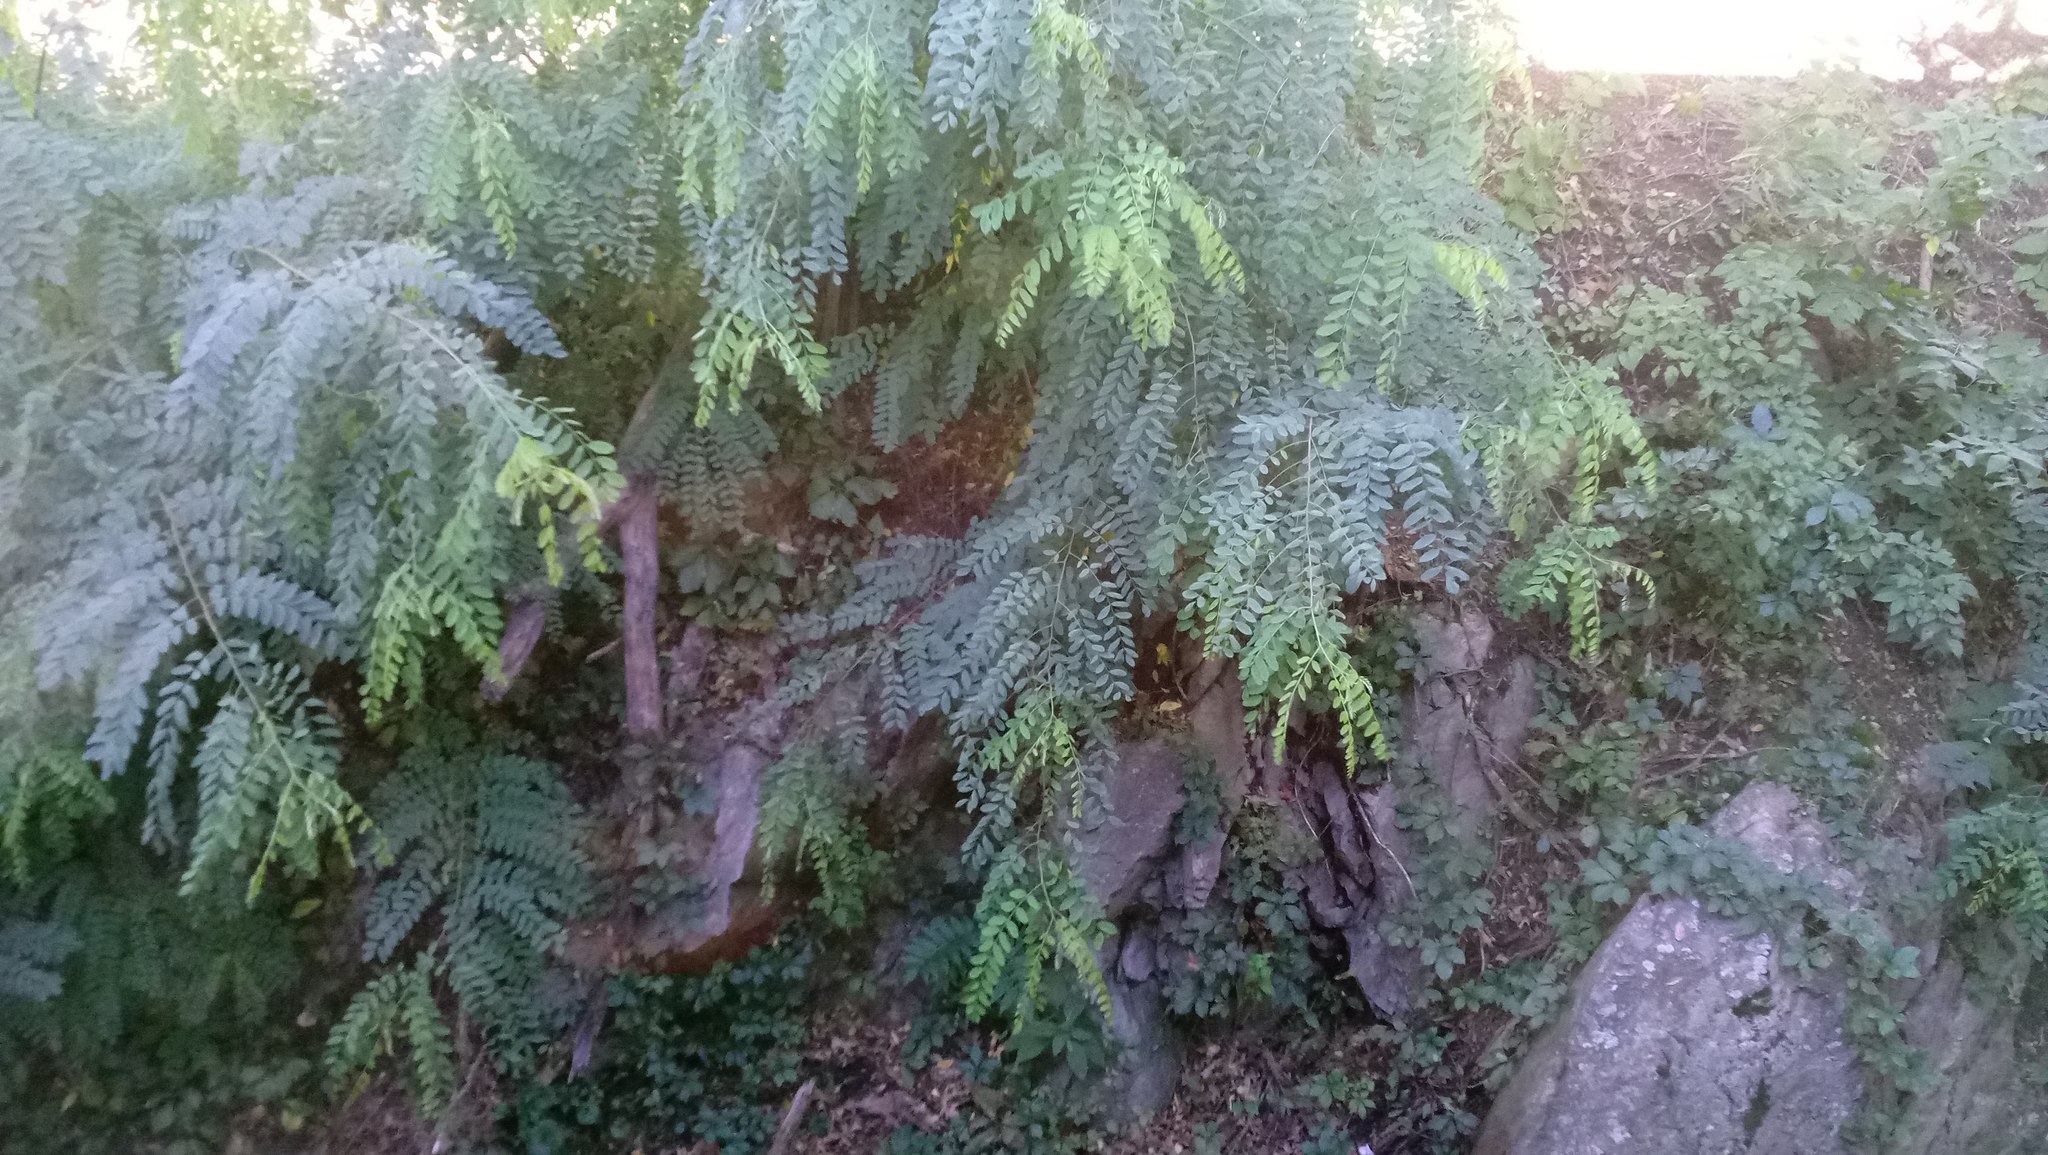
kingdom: Plantae
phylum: Tracheophyta
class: Magnoliopsida
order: Fabales
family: Fabaceae
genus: Robinia
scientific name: Robinia pseudoacacia
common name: Black locust
